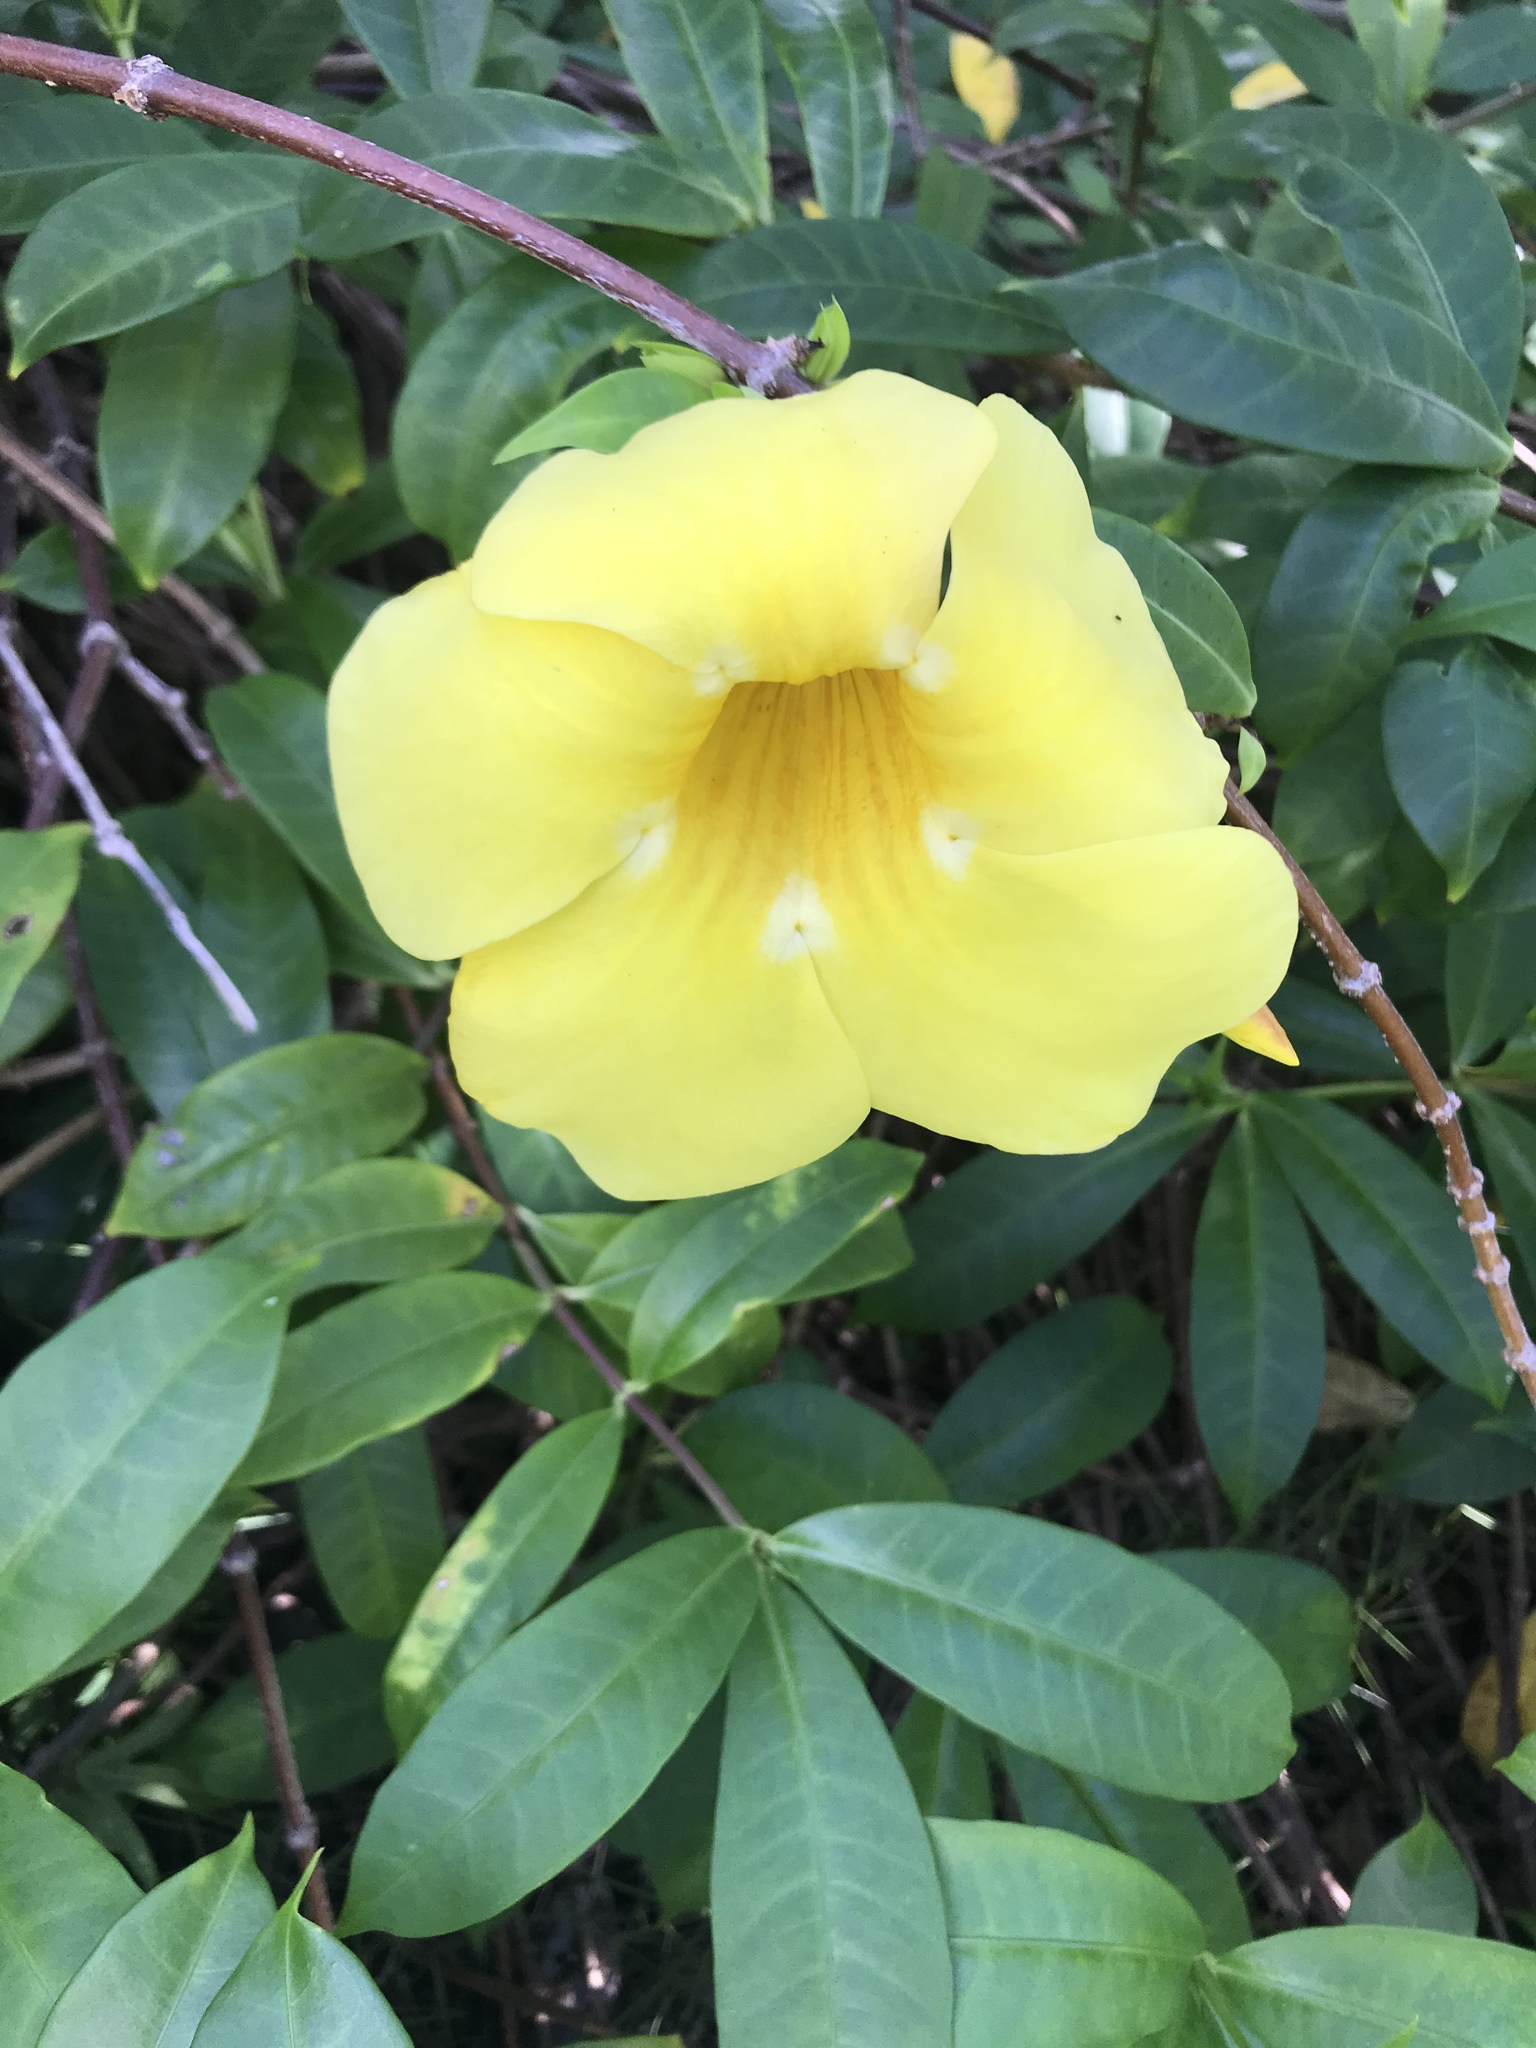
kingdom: Plantae
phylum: Tracheophyta
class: Magnoliopsida
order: Gentianales
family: Apocynaceae
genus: Allamanda
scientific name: Allamanda cathartica
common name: Golden trumpet
